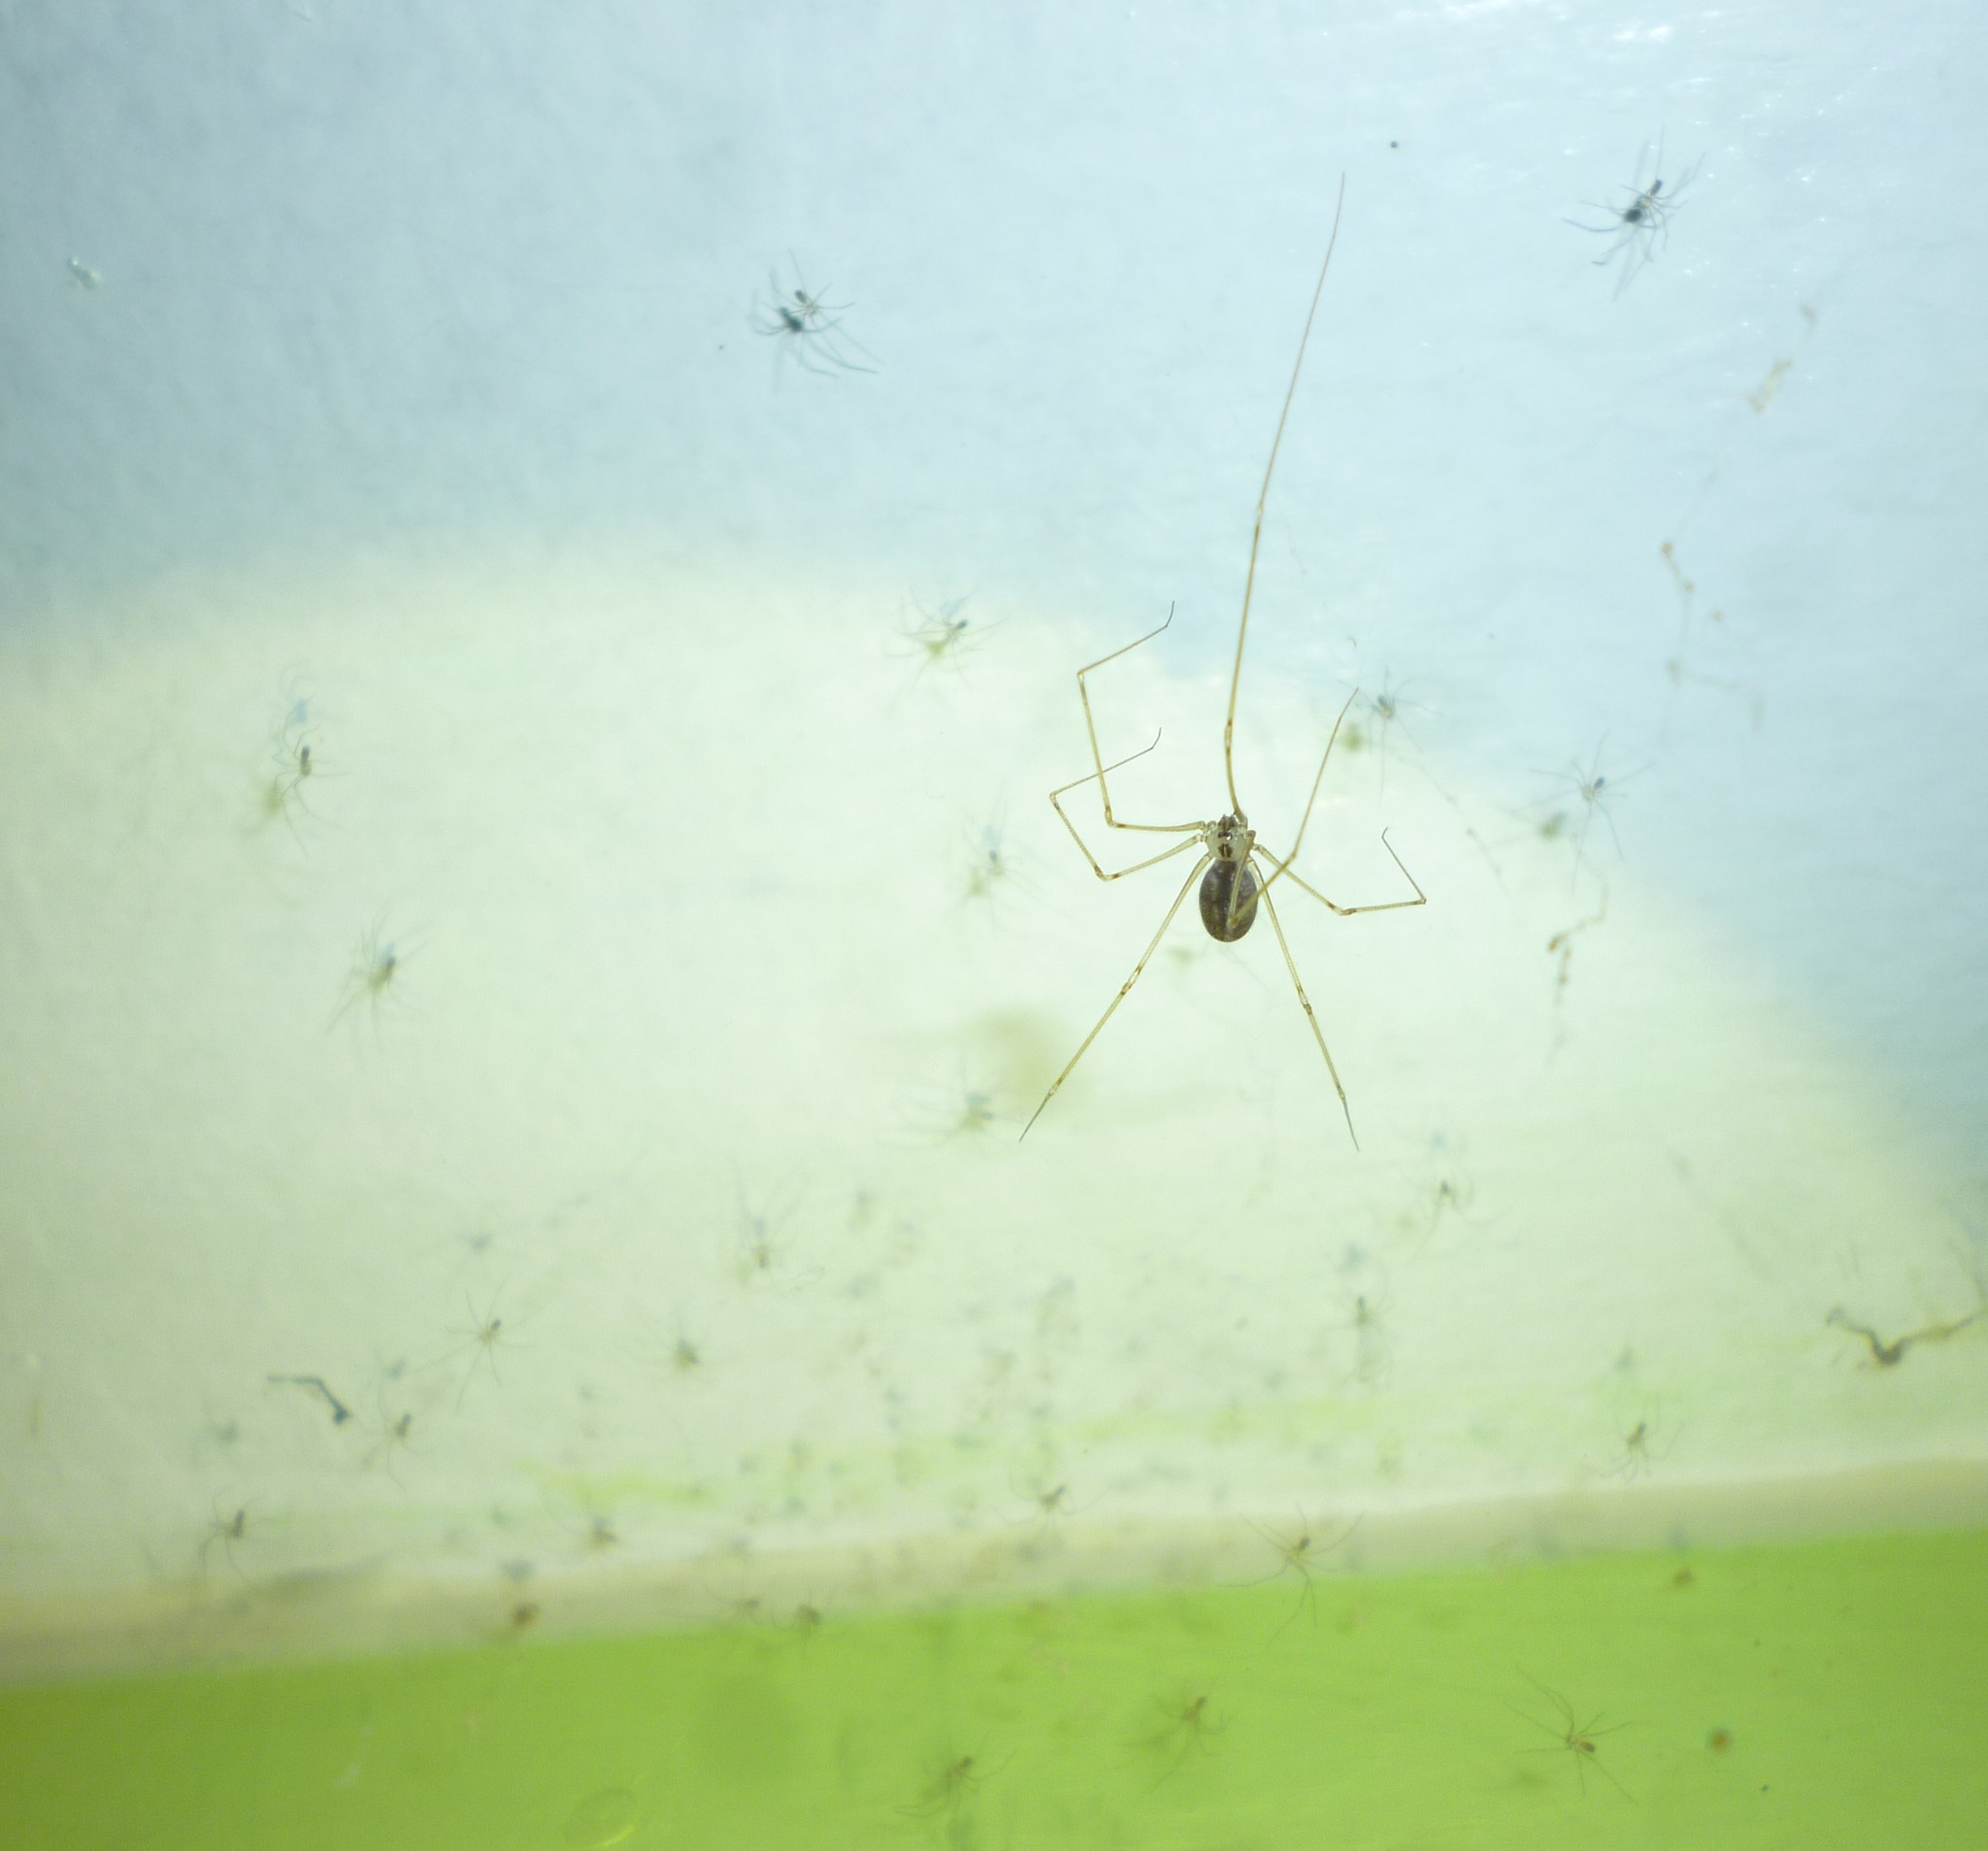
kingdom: Animalia
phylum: Arthropoda
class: Arachnida
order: Araneae
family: Pholcidae
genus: Pholcus
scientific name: Pholcus manueli
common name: Cellar spider
